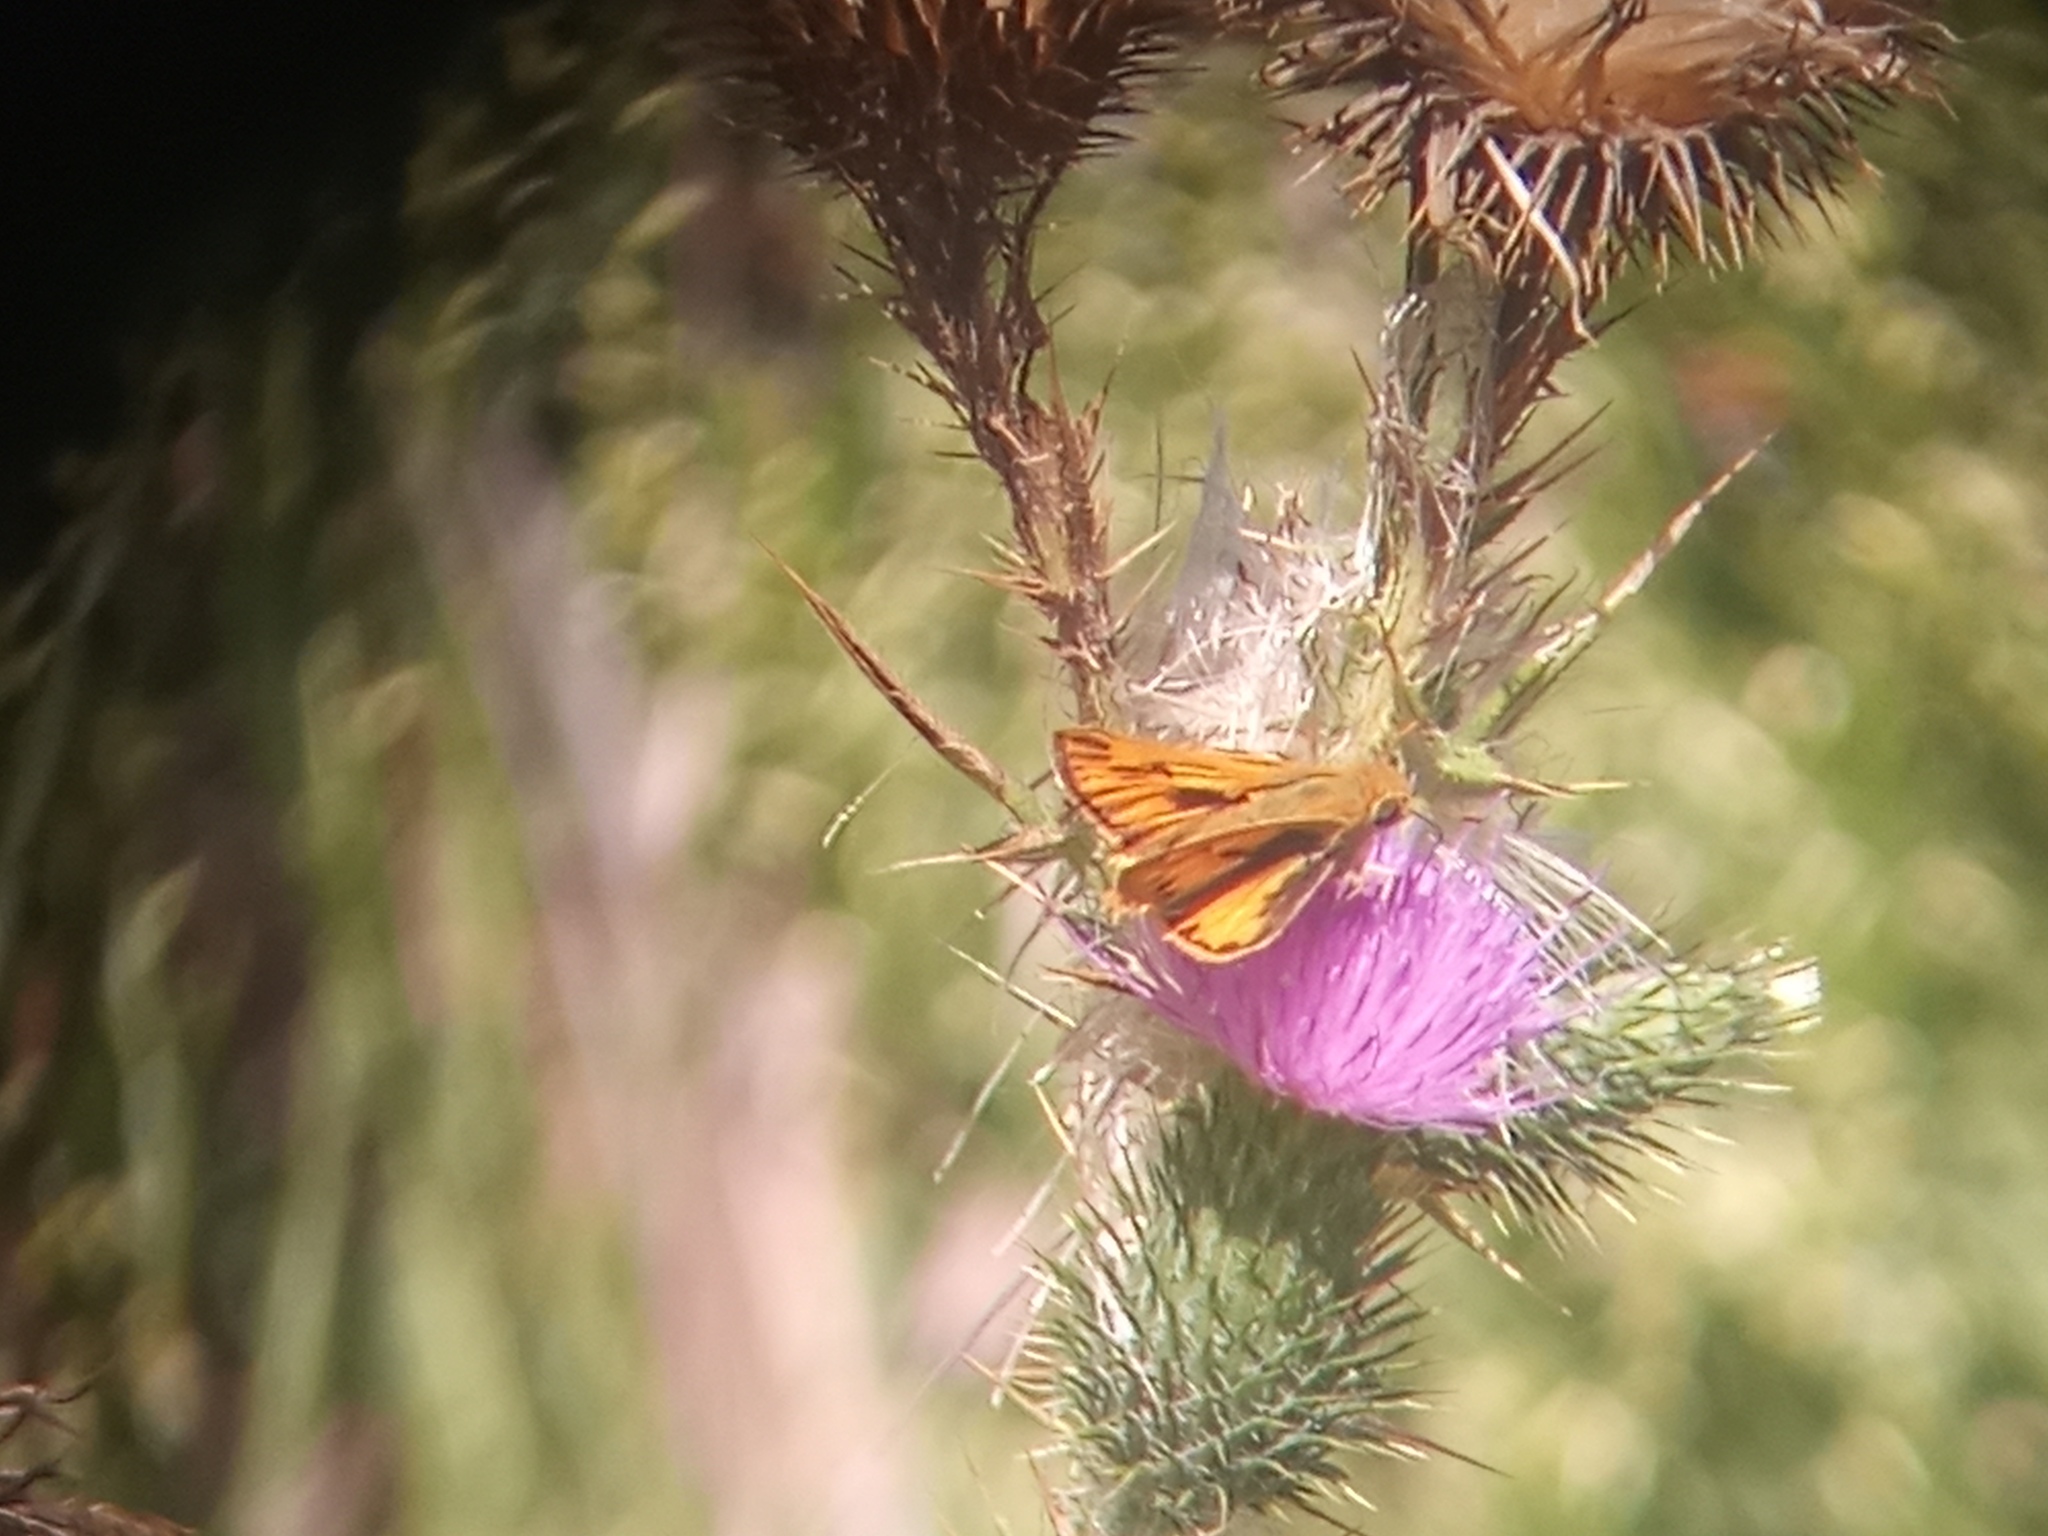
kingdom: Animalia
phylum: Arthropoda
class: Insecta
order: Lepidoptera
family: Hesperiidae
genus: Hylephila
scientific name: Hylephila phyleus
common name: Fiery skipper
